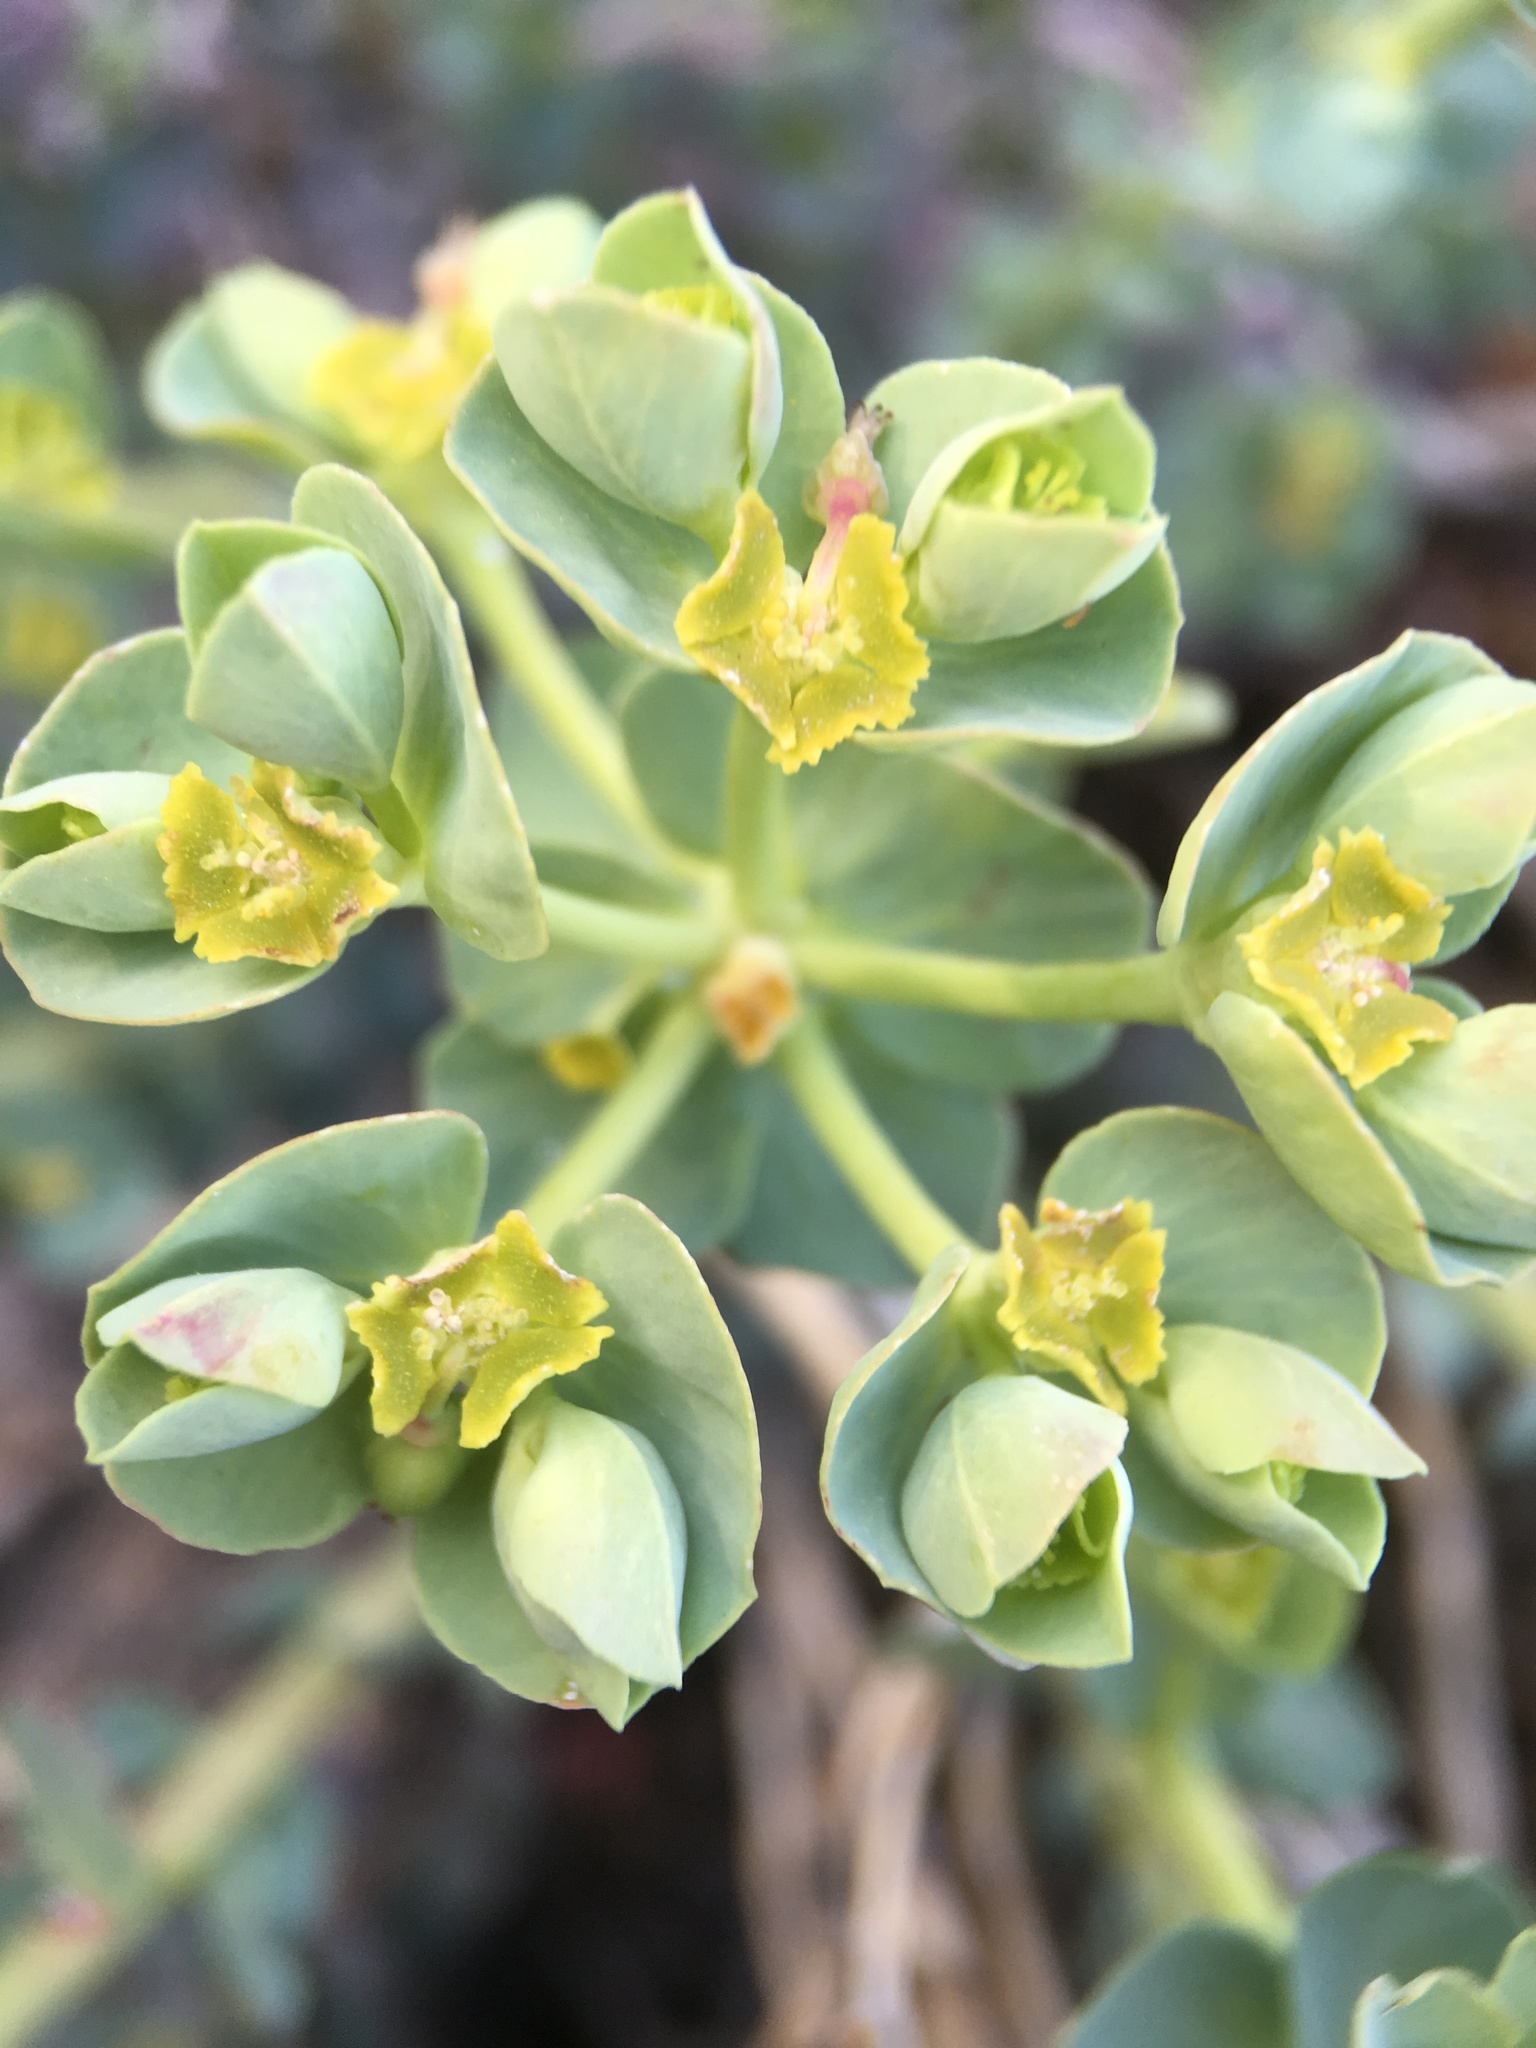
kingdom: Plantae
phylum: Tracheophyta
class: Magnoliopsida
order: Malpighiales
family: Euphorbiaceae
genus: Euphorbia
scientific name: Euphorbia lurida
